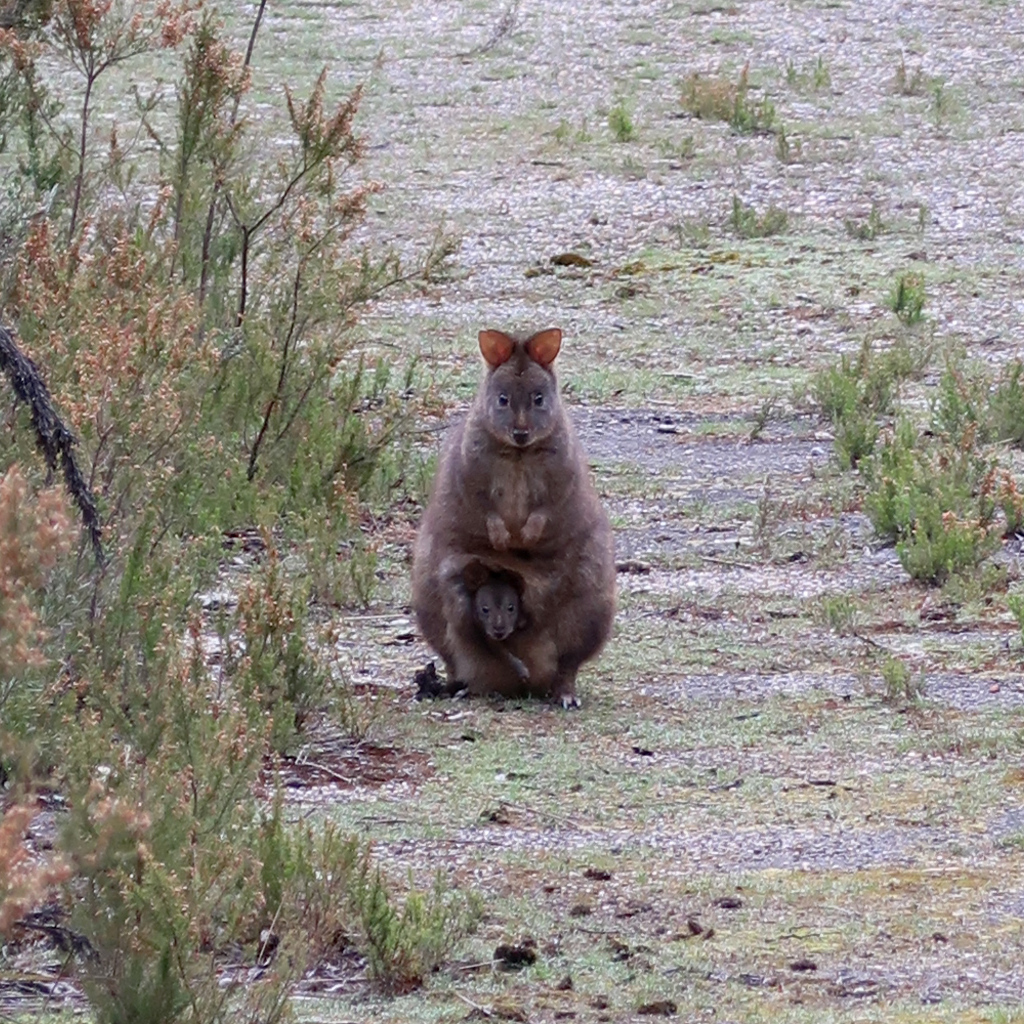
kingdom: Animalia
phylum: Chordata
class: Mammalia
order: Diprotodontia
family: Macropodidae
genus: Thylogale
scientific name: Thylogale billardierii
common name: Tasmanian pademelon
